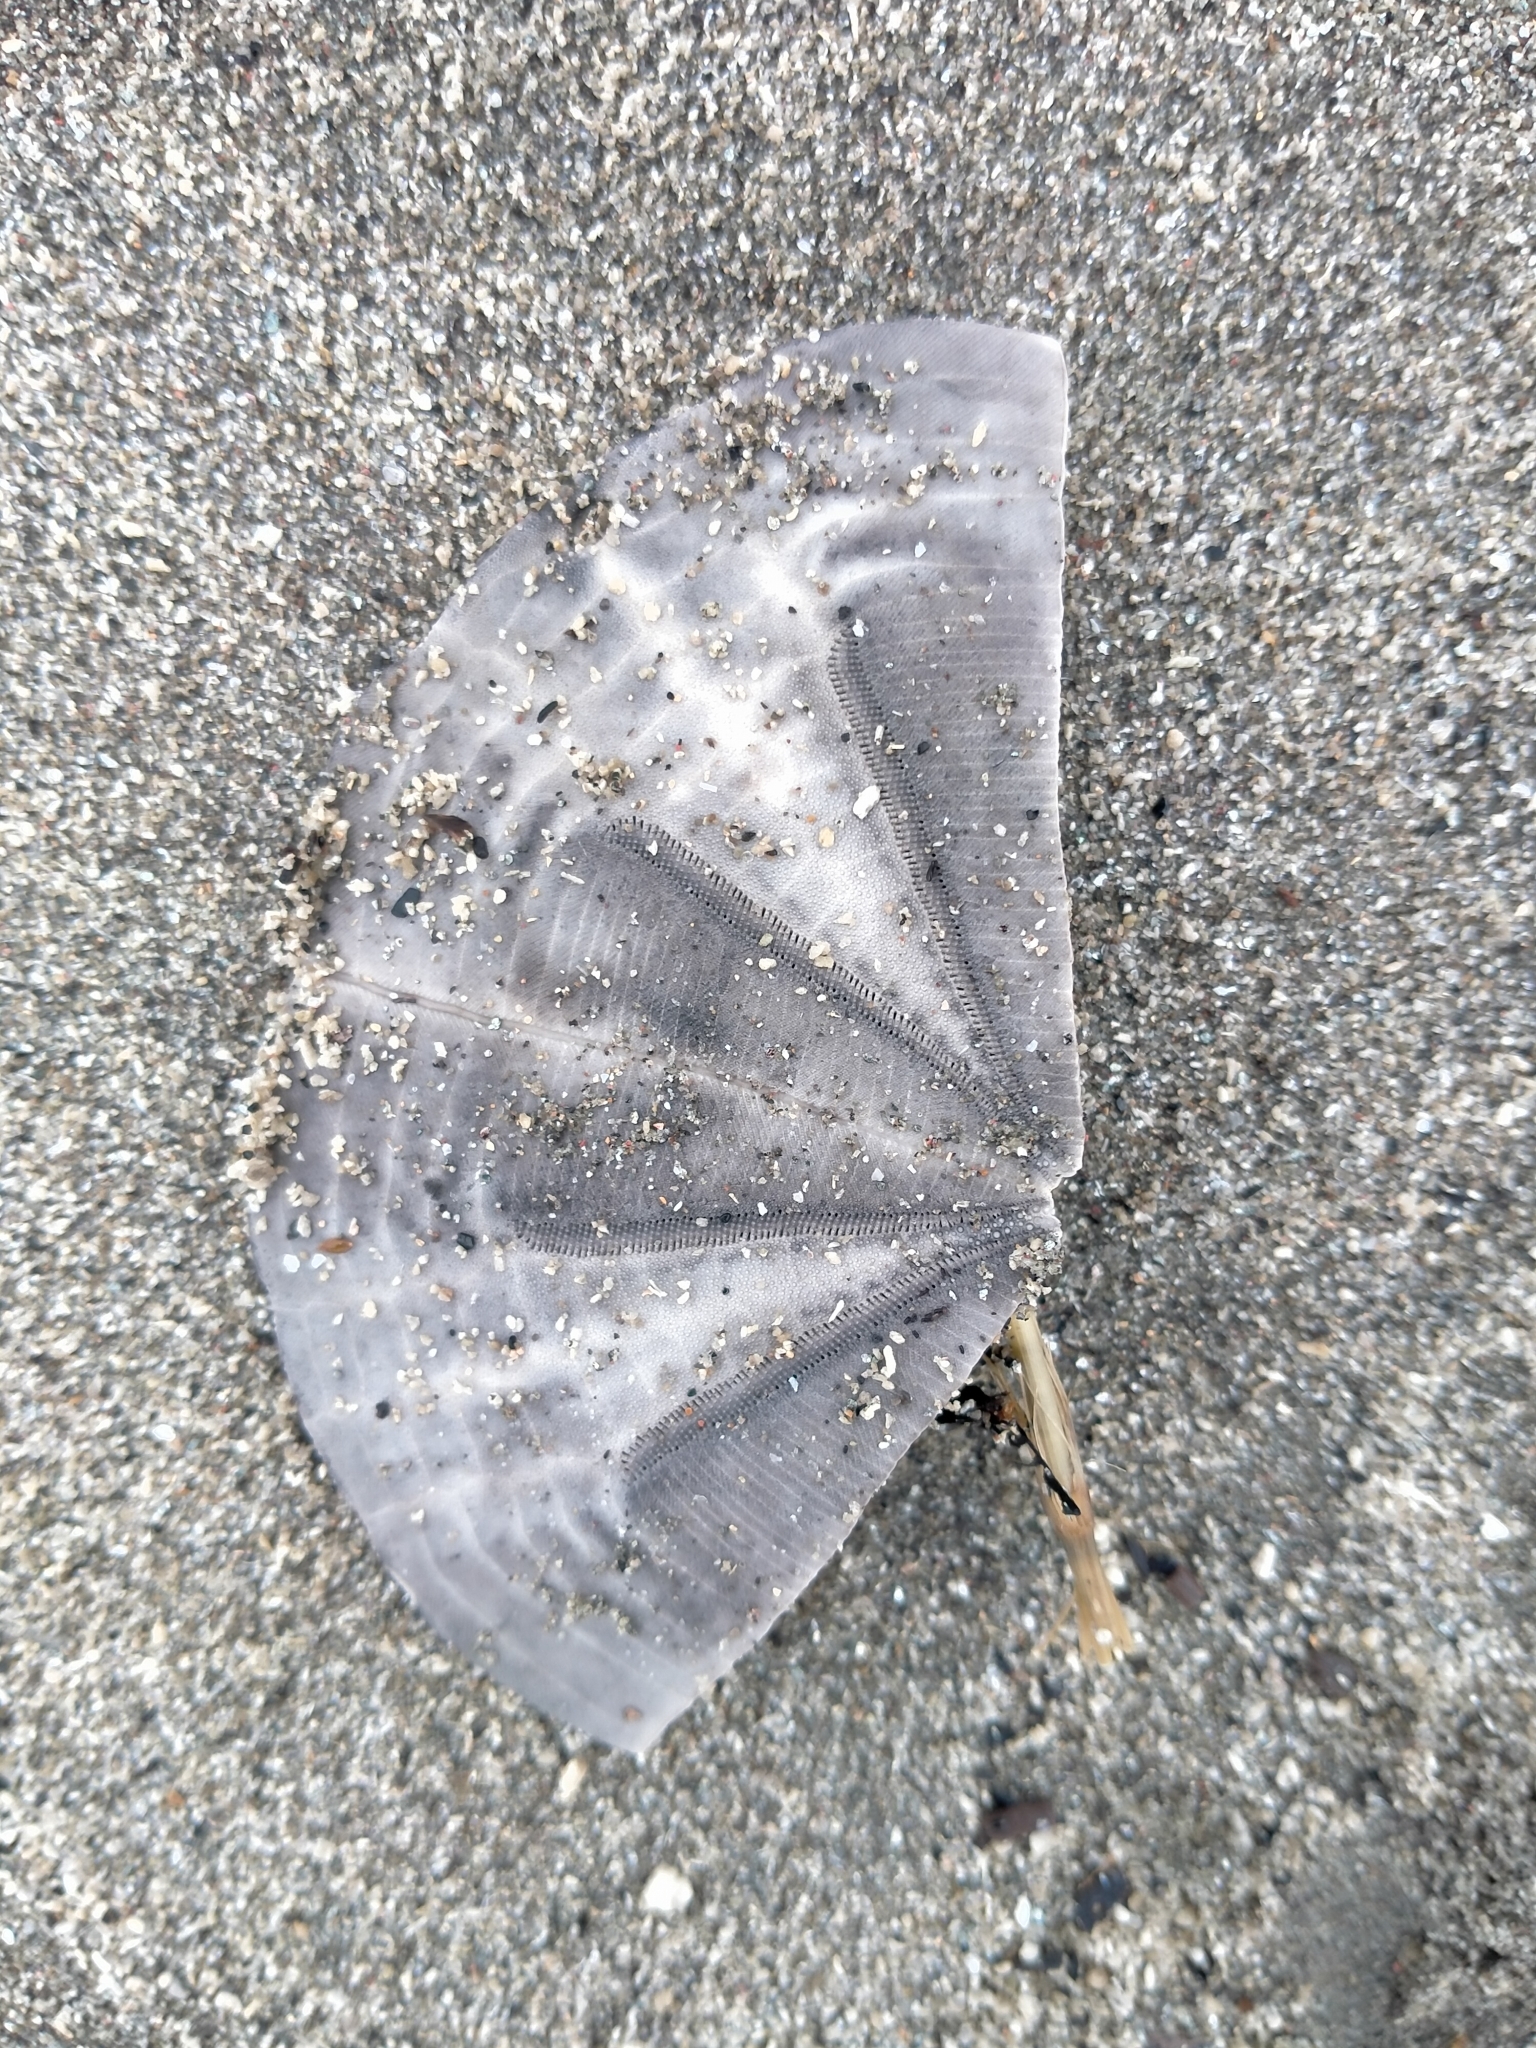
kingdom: Animalia
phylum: Echinodermata
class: Echinoidea
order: Clypeasteroida
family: Clypeasteridae
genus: Fellaster
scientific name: Fellaster zelandiae
